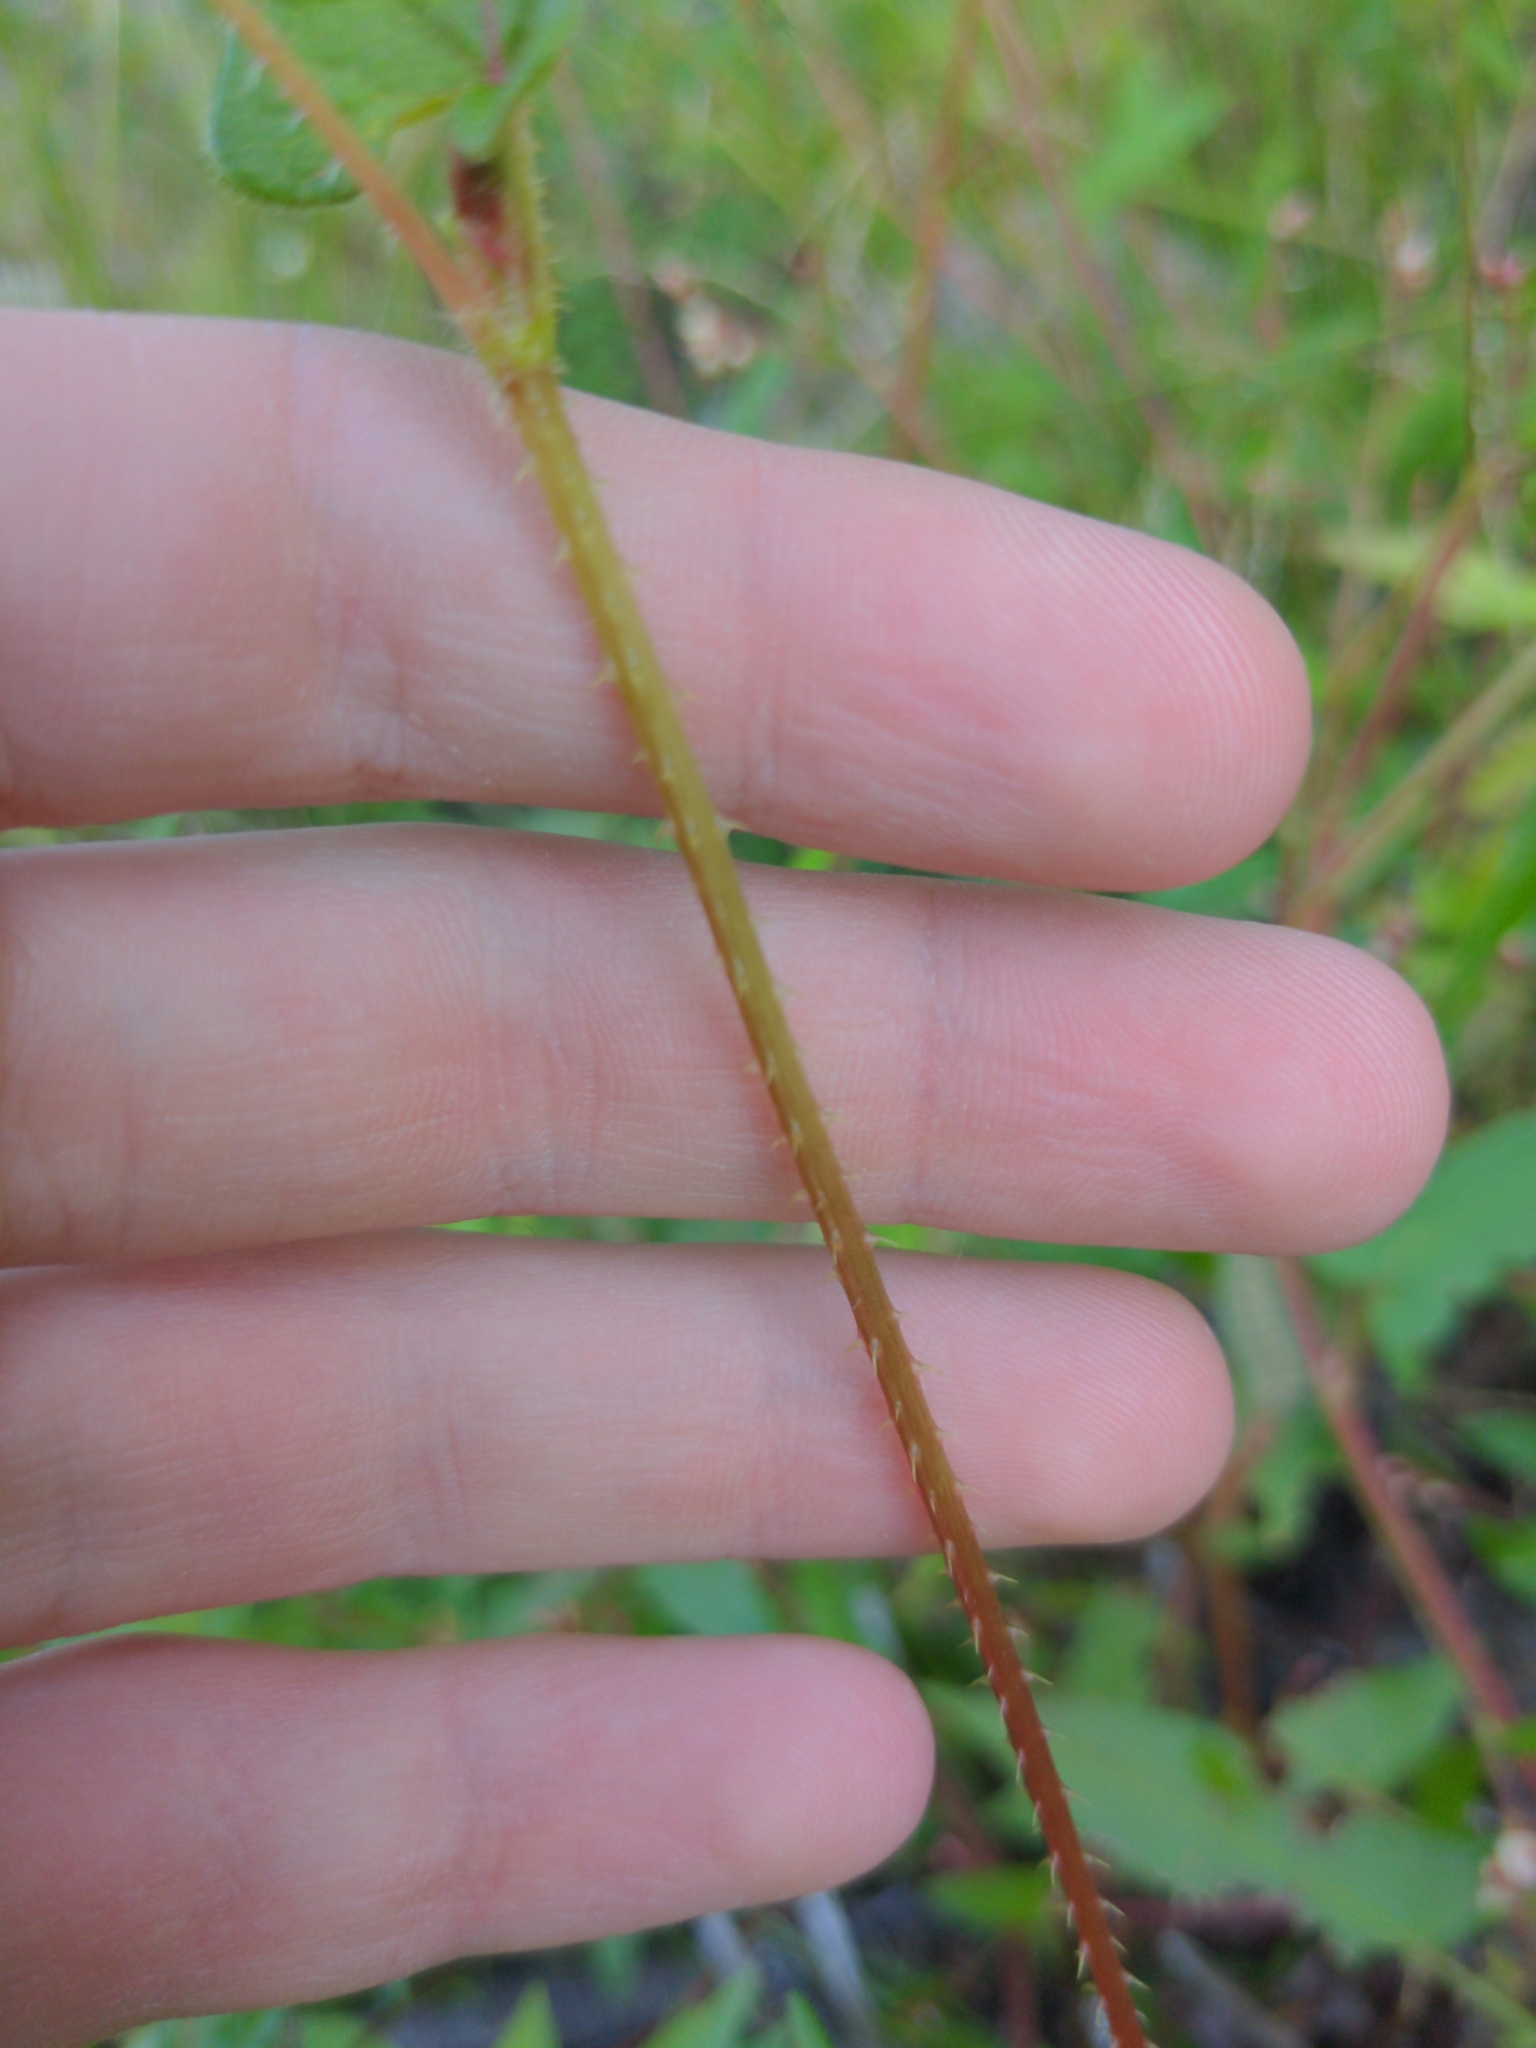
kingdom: Plantae
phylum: Tracheophyta
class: Magnoliopsida
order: Caryophyllales
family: Polygonaceae
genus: Persicaria
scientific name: Persicaria arifolia
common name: Halberd-leaved tear-thumb
